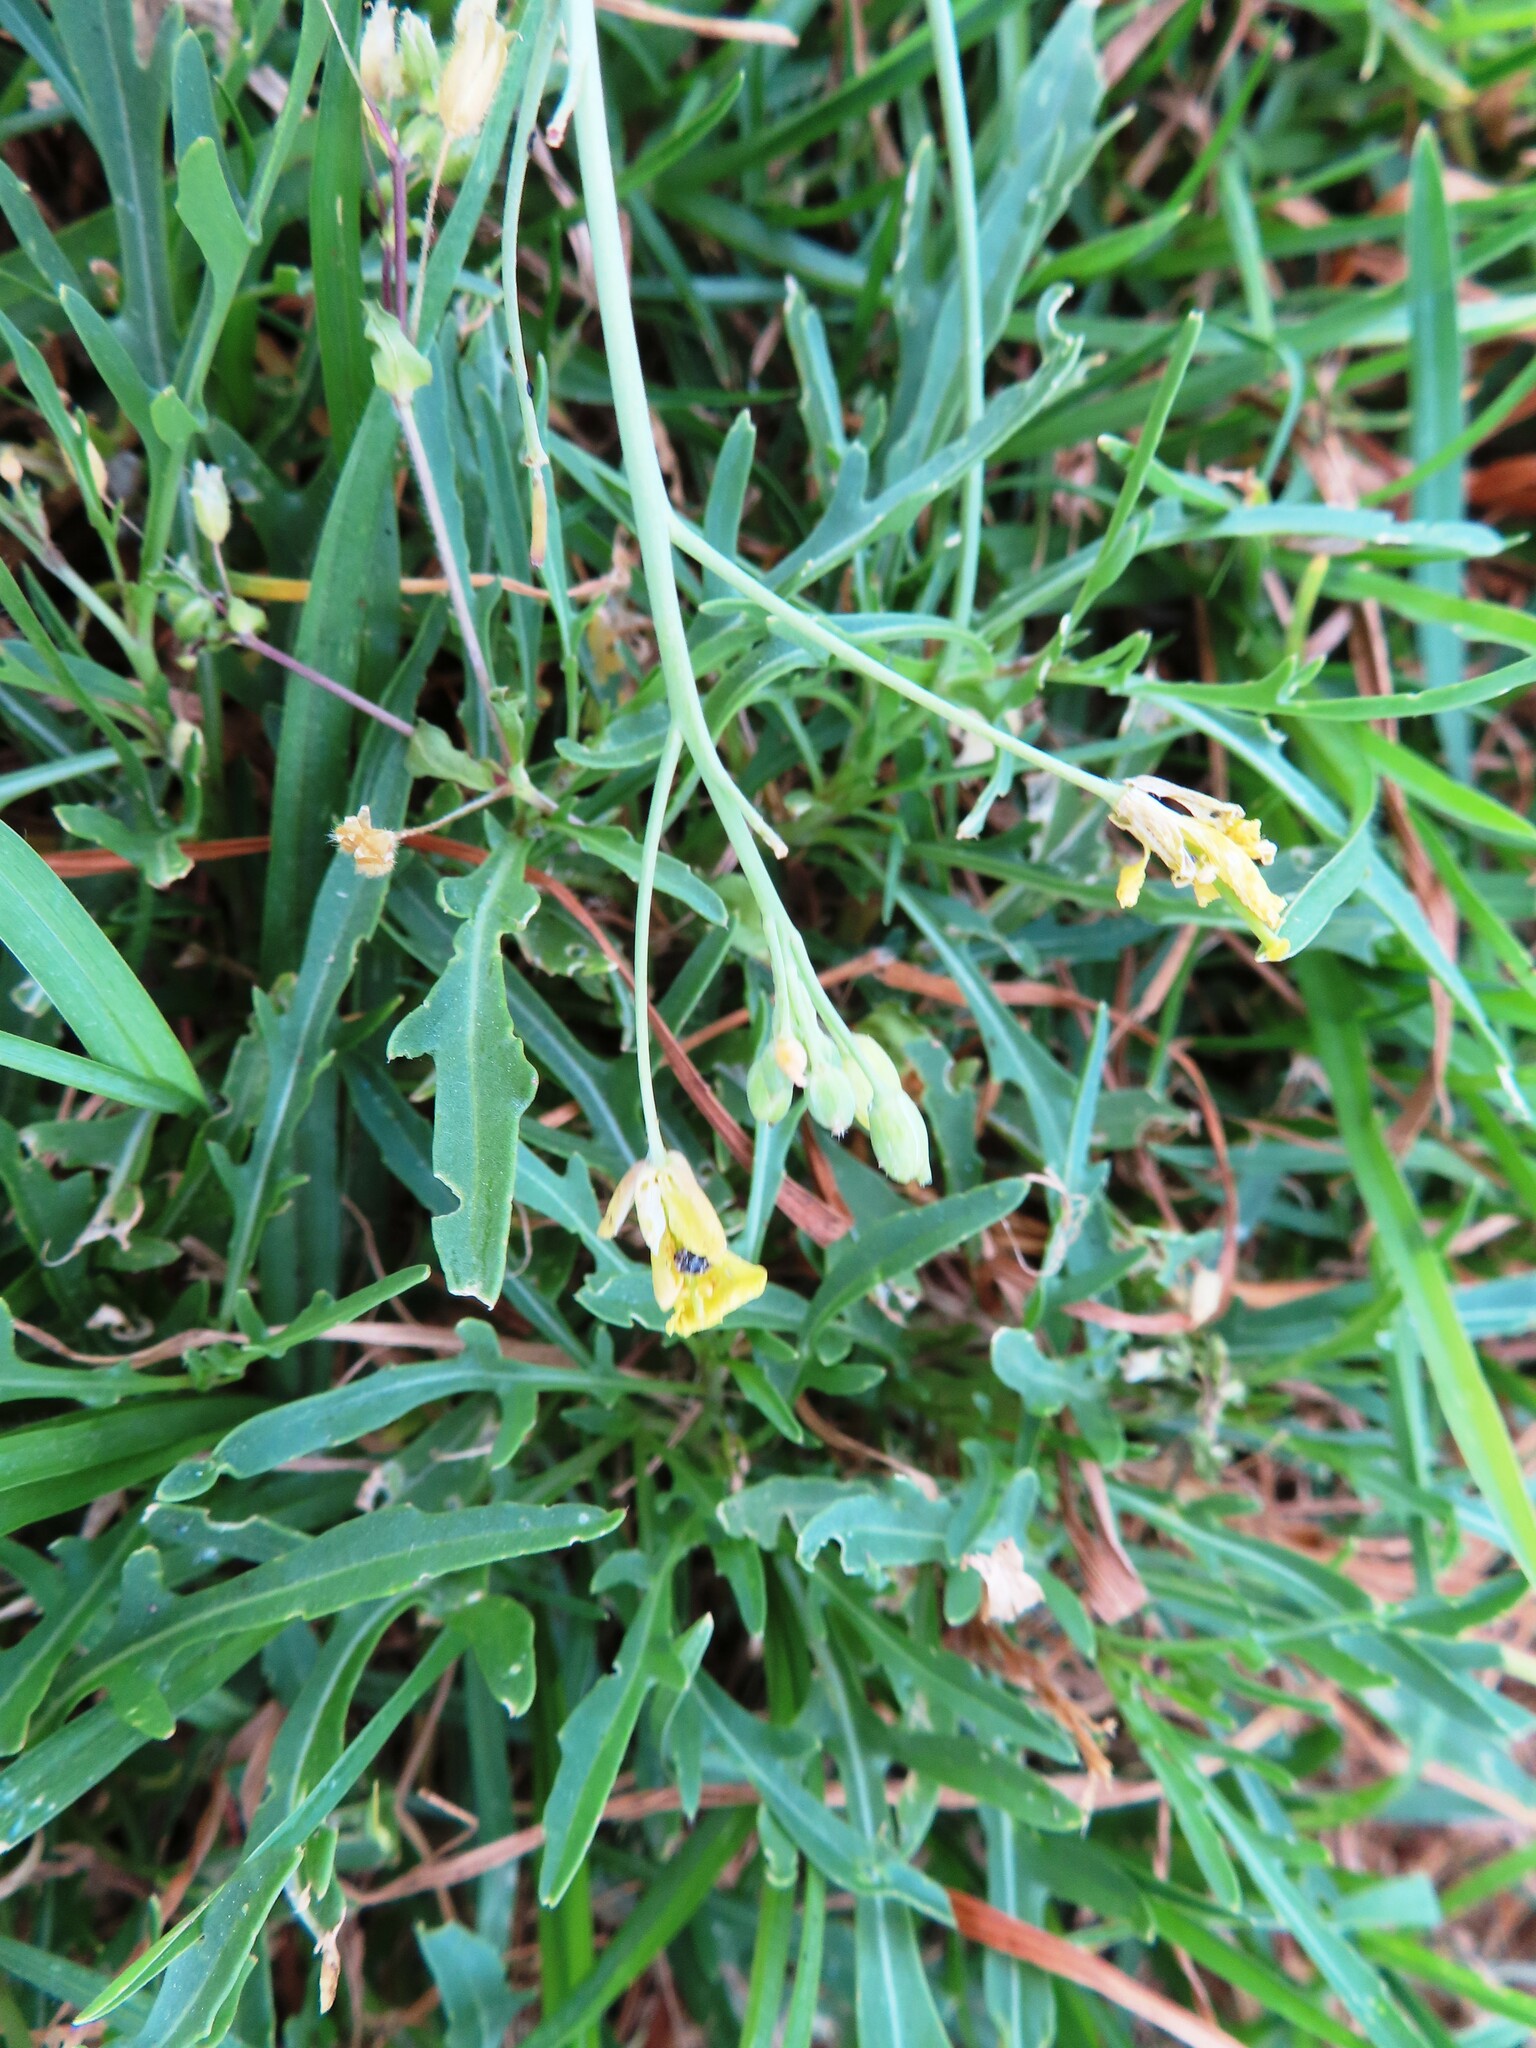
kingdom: Plantae
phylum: Tracheophyta
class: Magnoliopsida
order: Brassicales
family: Brassicaceae
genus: Diplotaxis
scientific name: Diplotaxis muralis
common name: Annual wall-rocket
